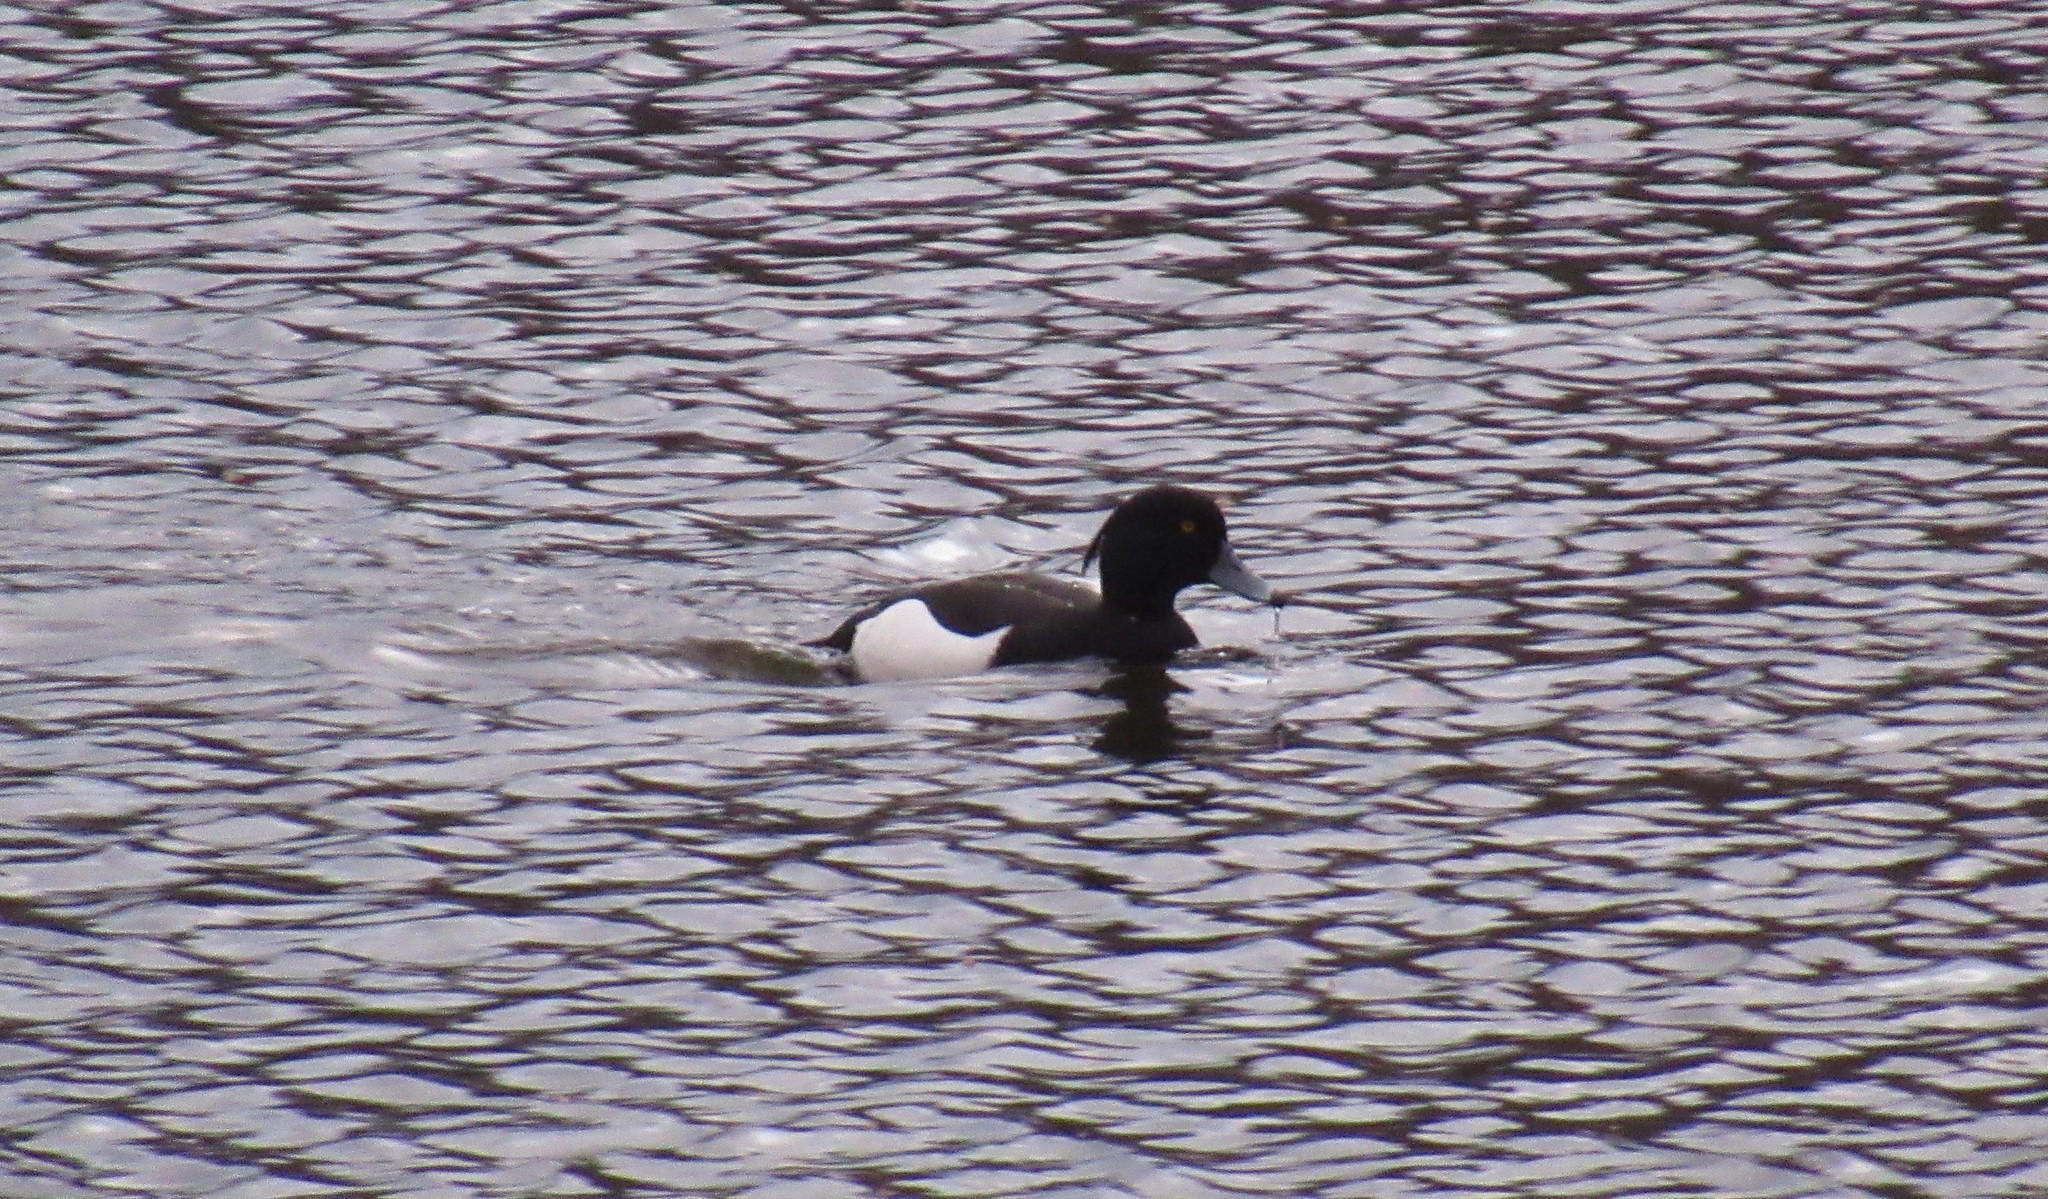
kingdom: Animalia
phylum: Chordata
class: Aves
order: Anseriformes
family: Anatidae
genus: Aythya
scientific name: Aythya fuligula
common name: Tufted duck
